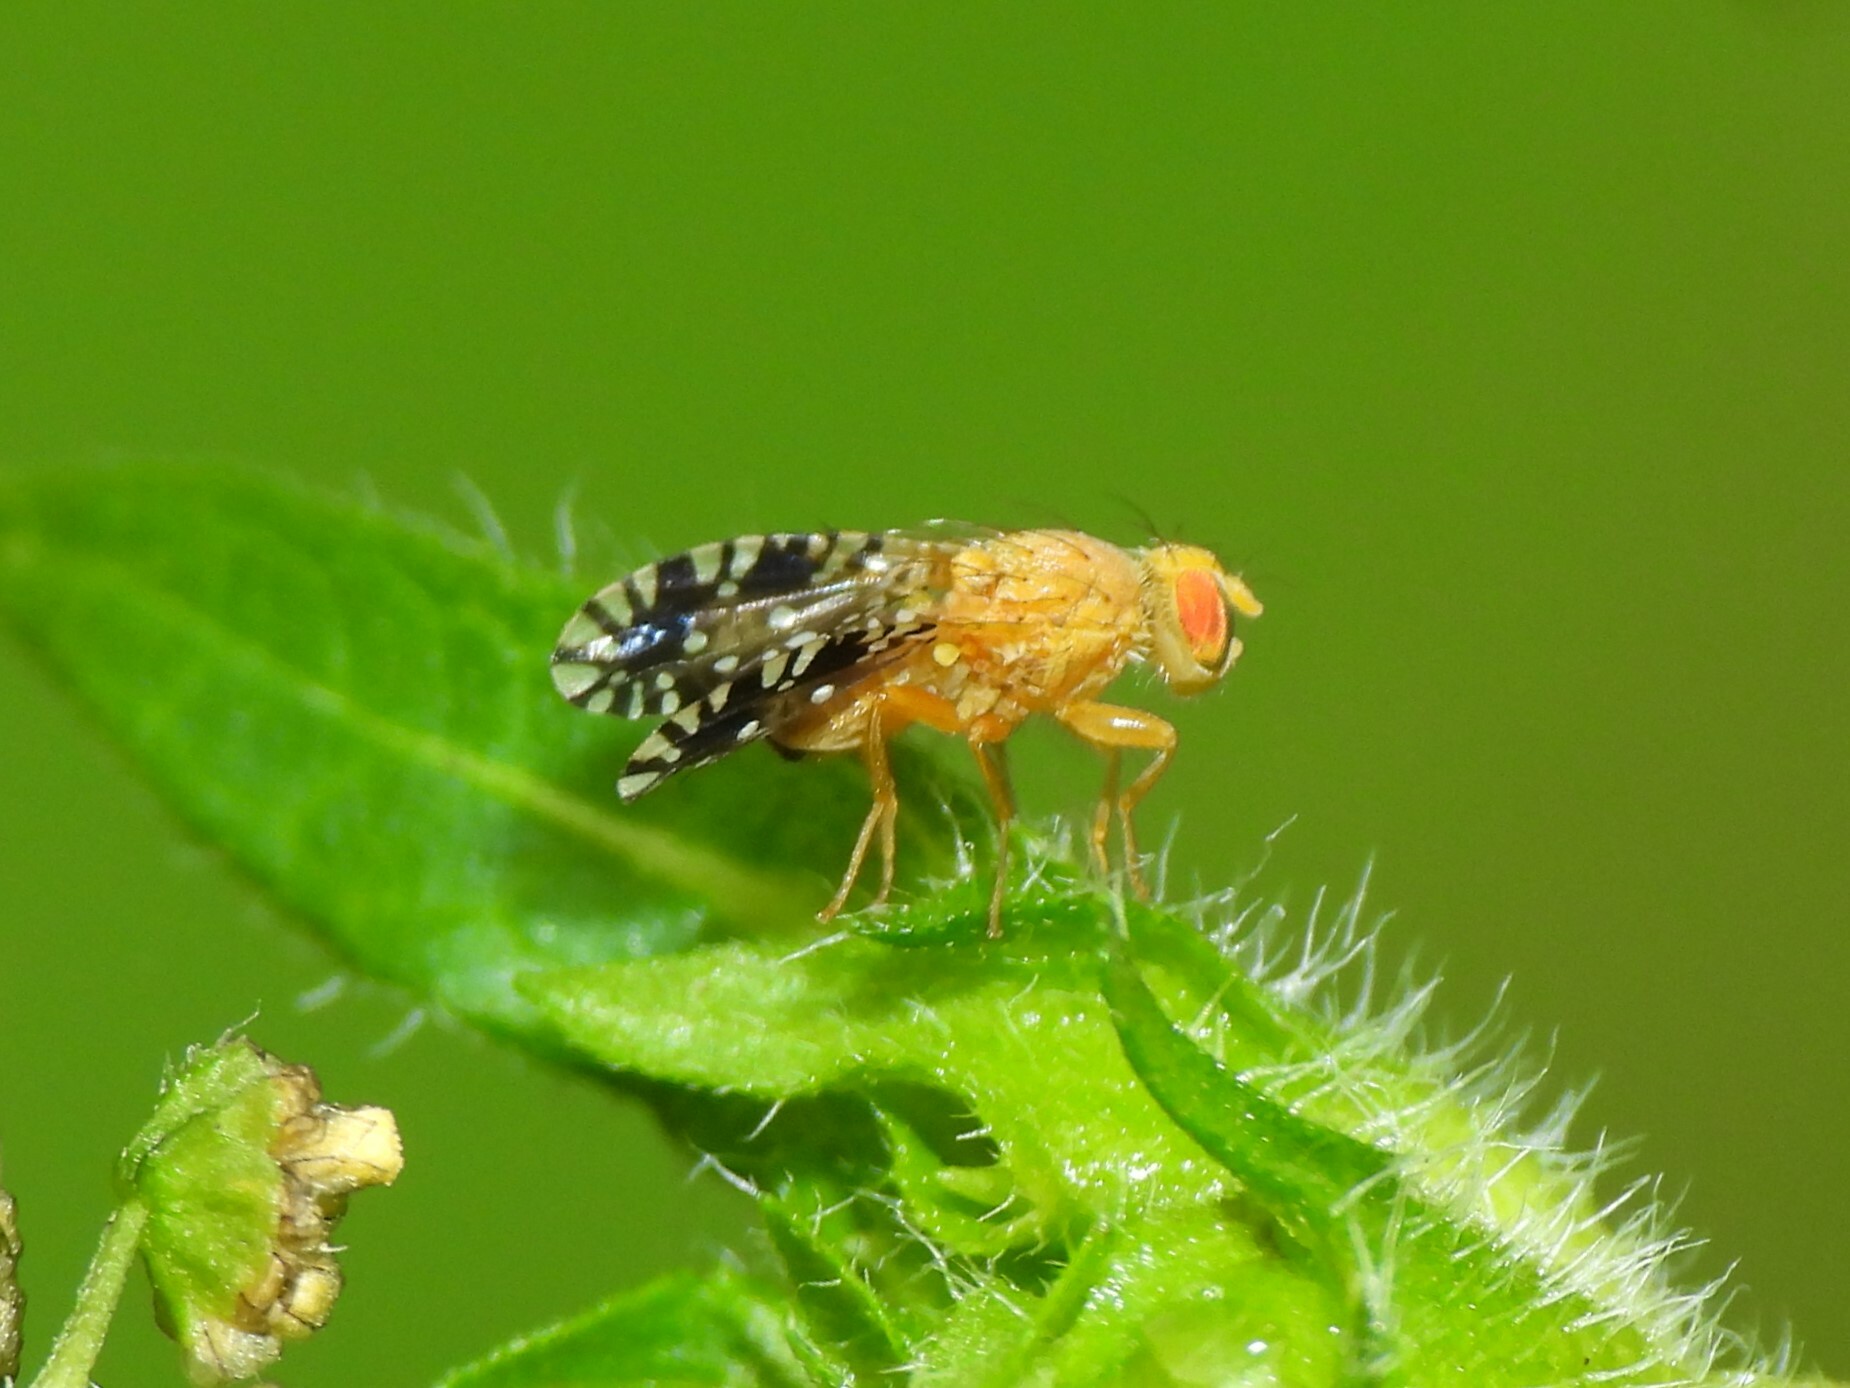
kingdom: Animalia
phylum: Arthropoda
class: Insecta
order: Diptera
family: Tephritidae
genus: Euaresta
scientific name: Euaresta festiva
